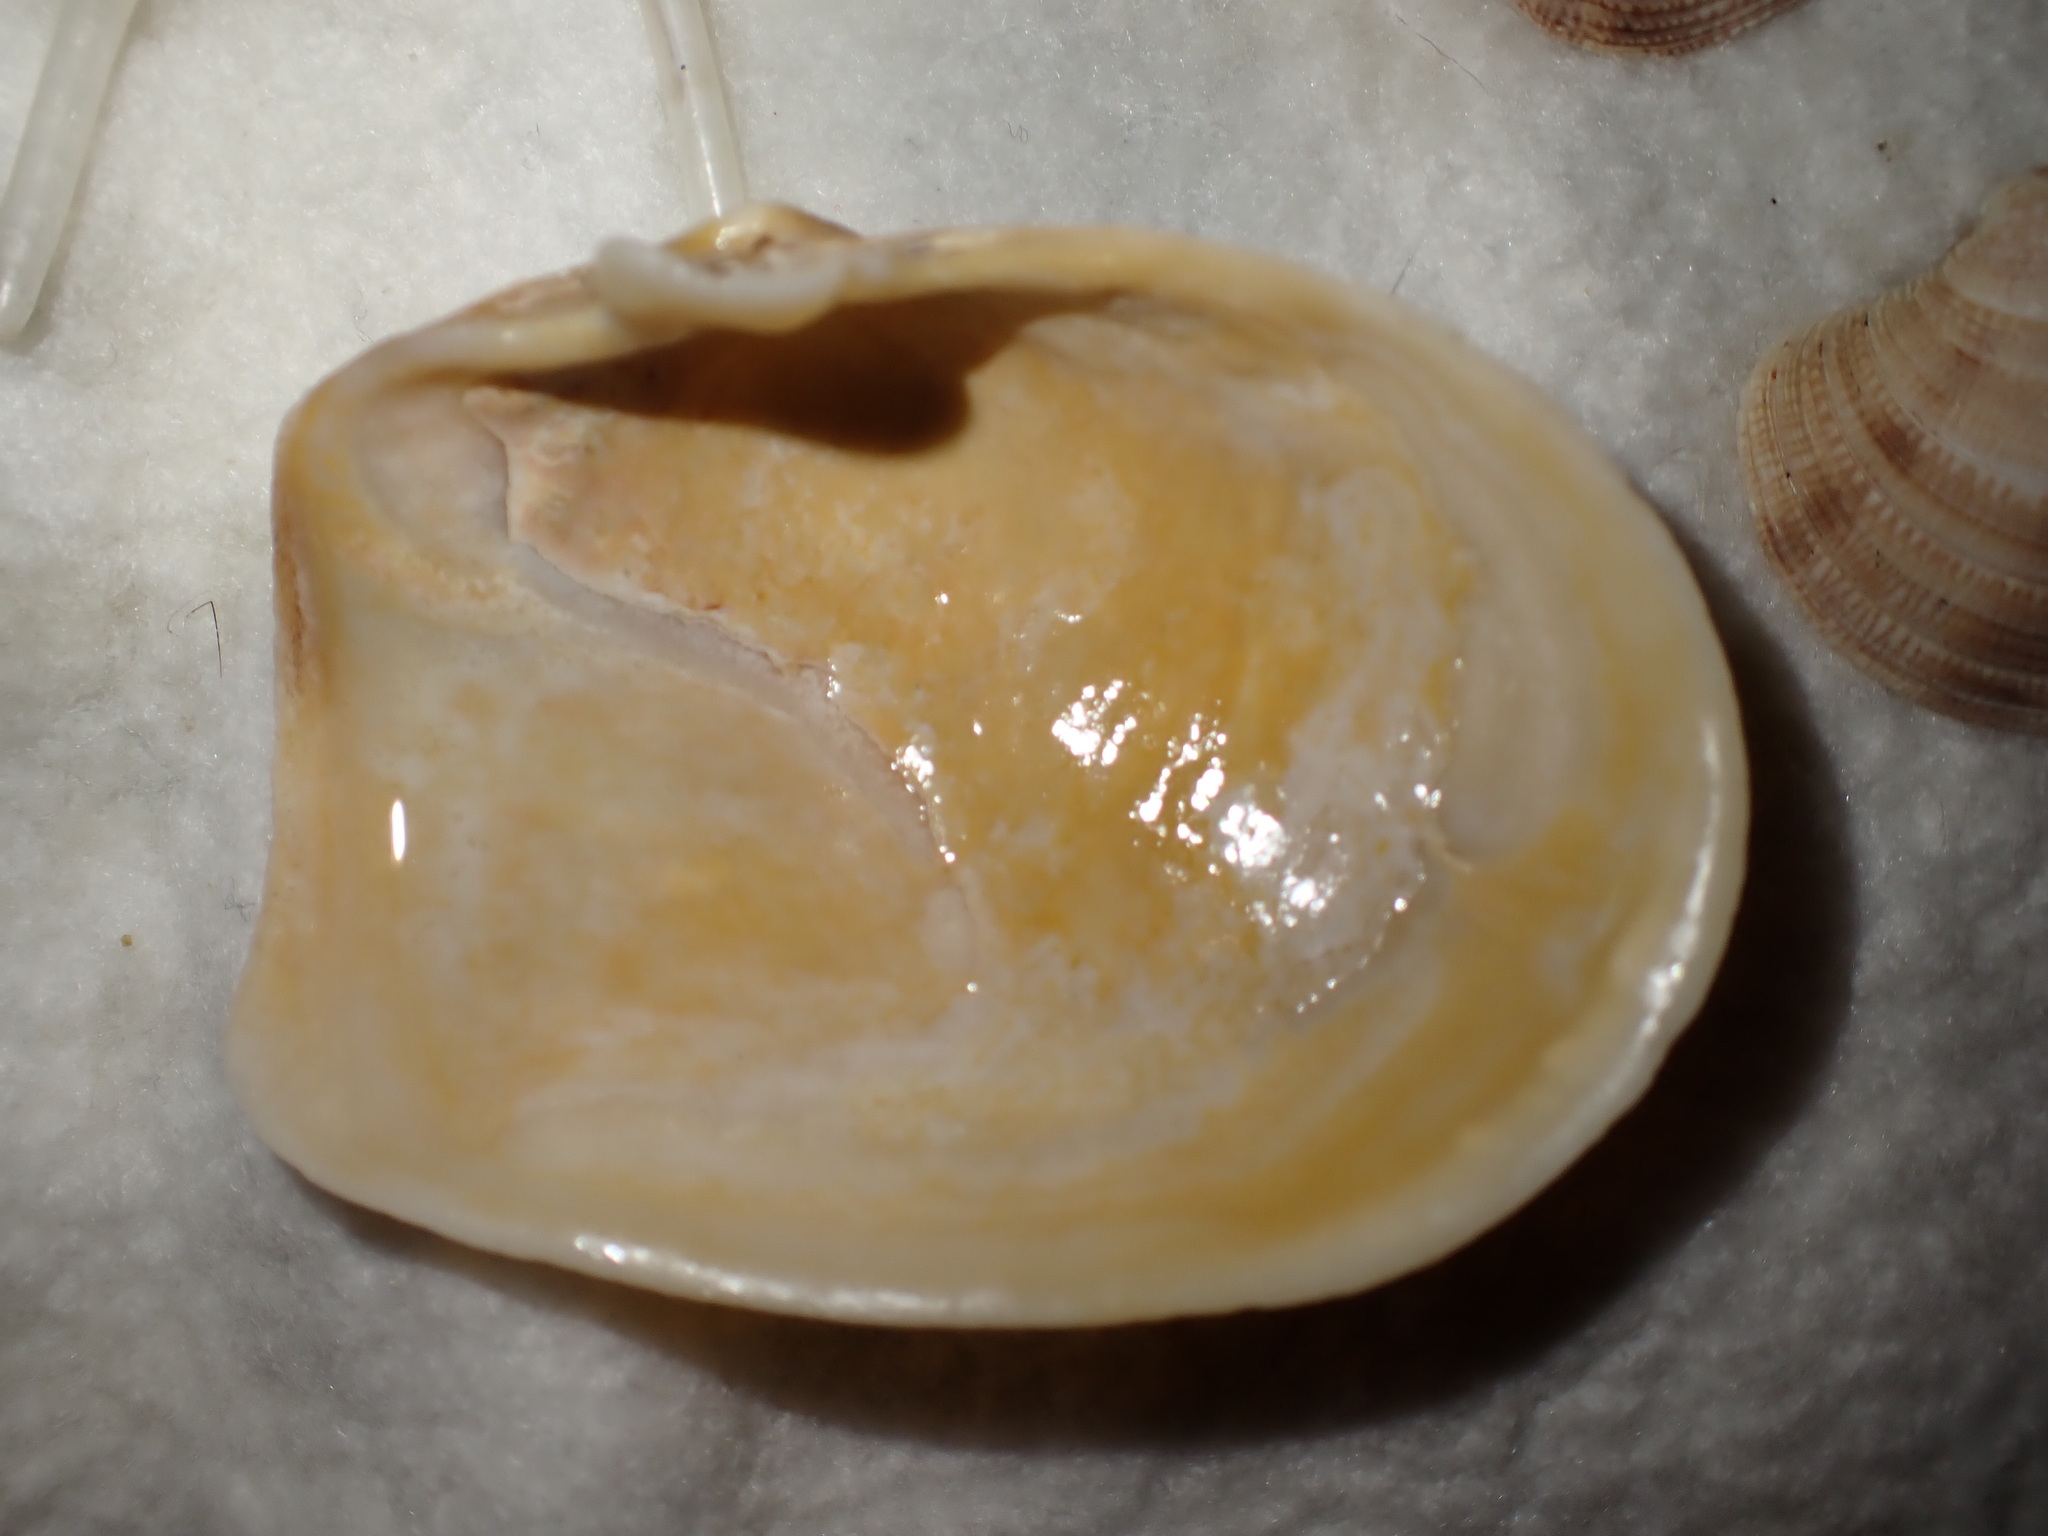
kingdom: Animalia
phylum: Mollusca
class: Bivalvia
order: Myida
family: Myidae
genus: Mya
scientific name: Mya truncata
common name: Blunt gaper
